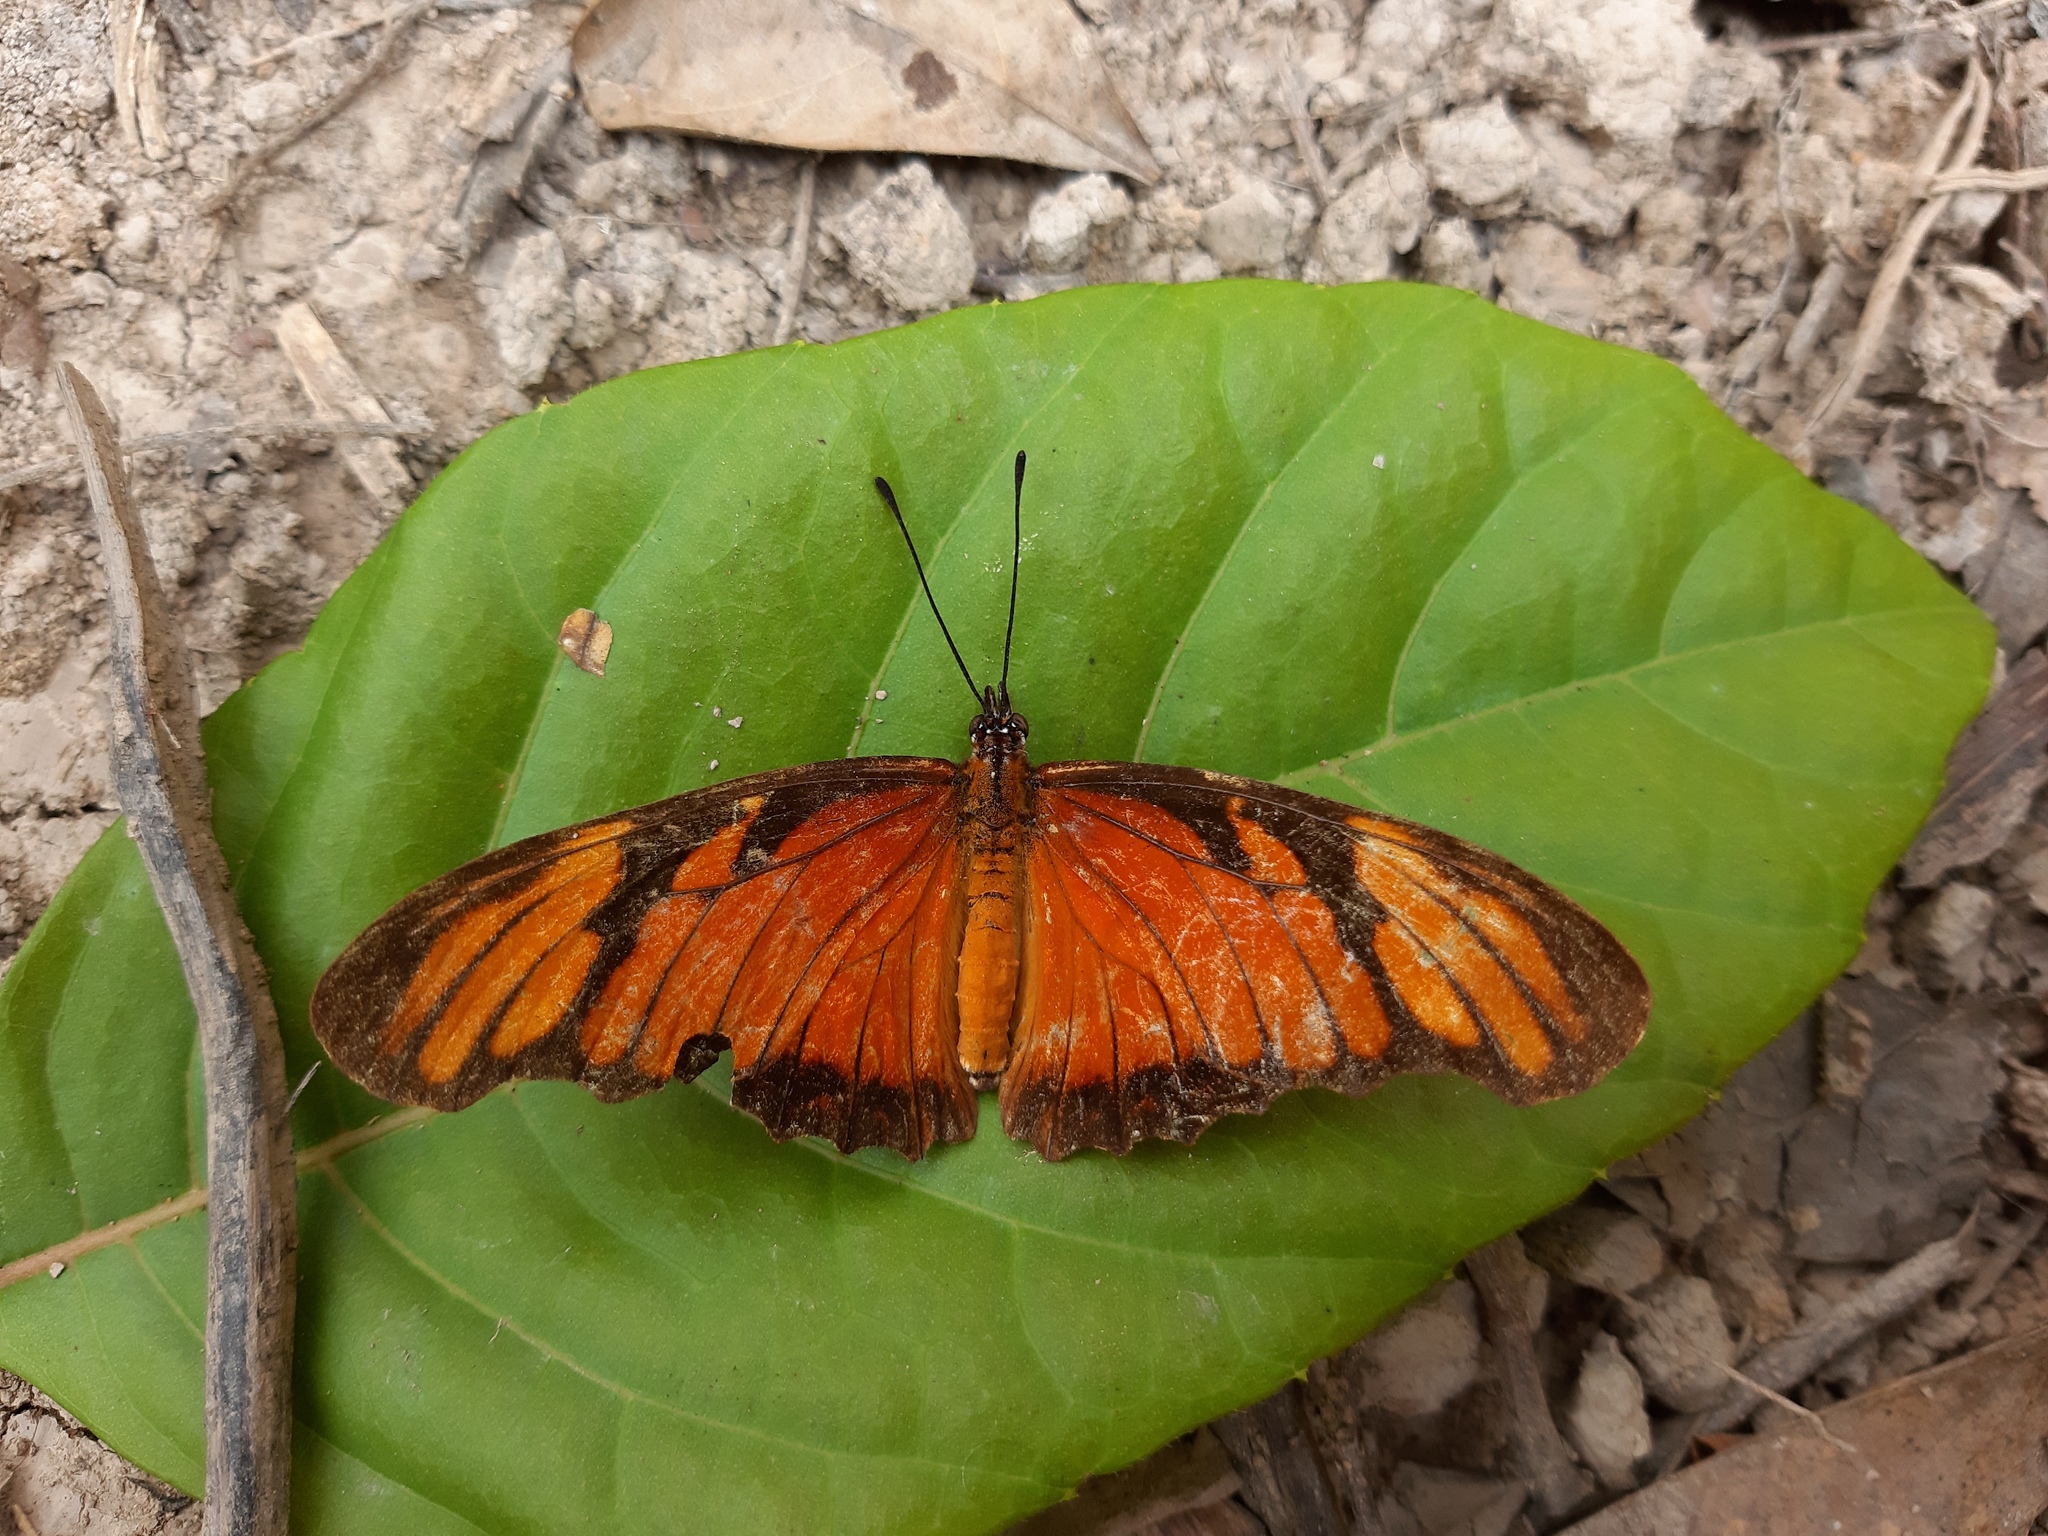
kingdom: Animalia
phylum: Arthropoda
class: Insecta
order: Lepidoptera
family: Nymphalidae
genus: Dione
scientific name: Dione juno
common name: Juno silverspot
